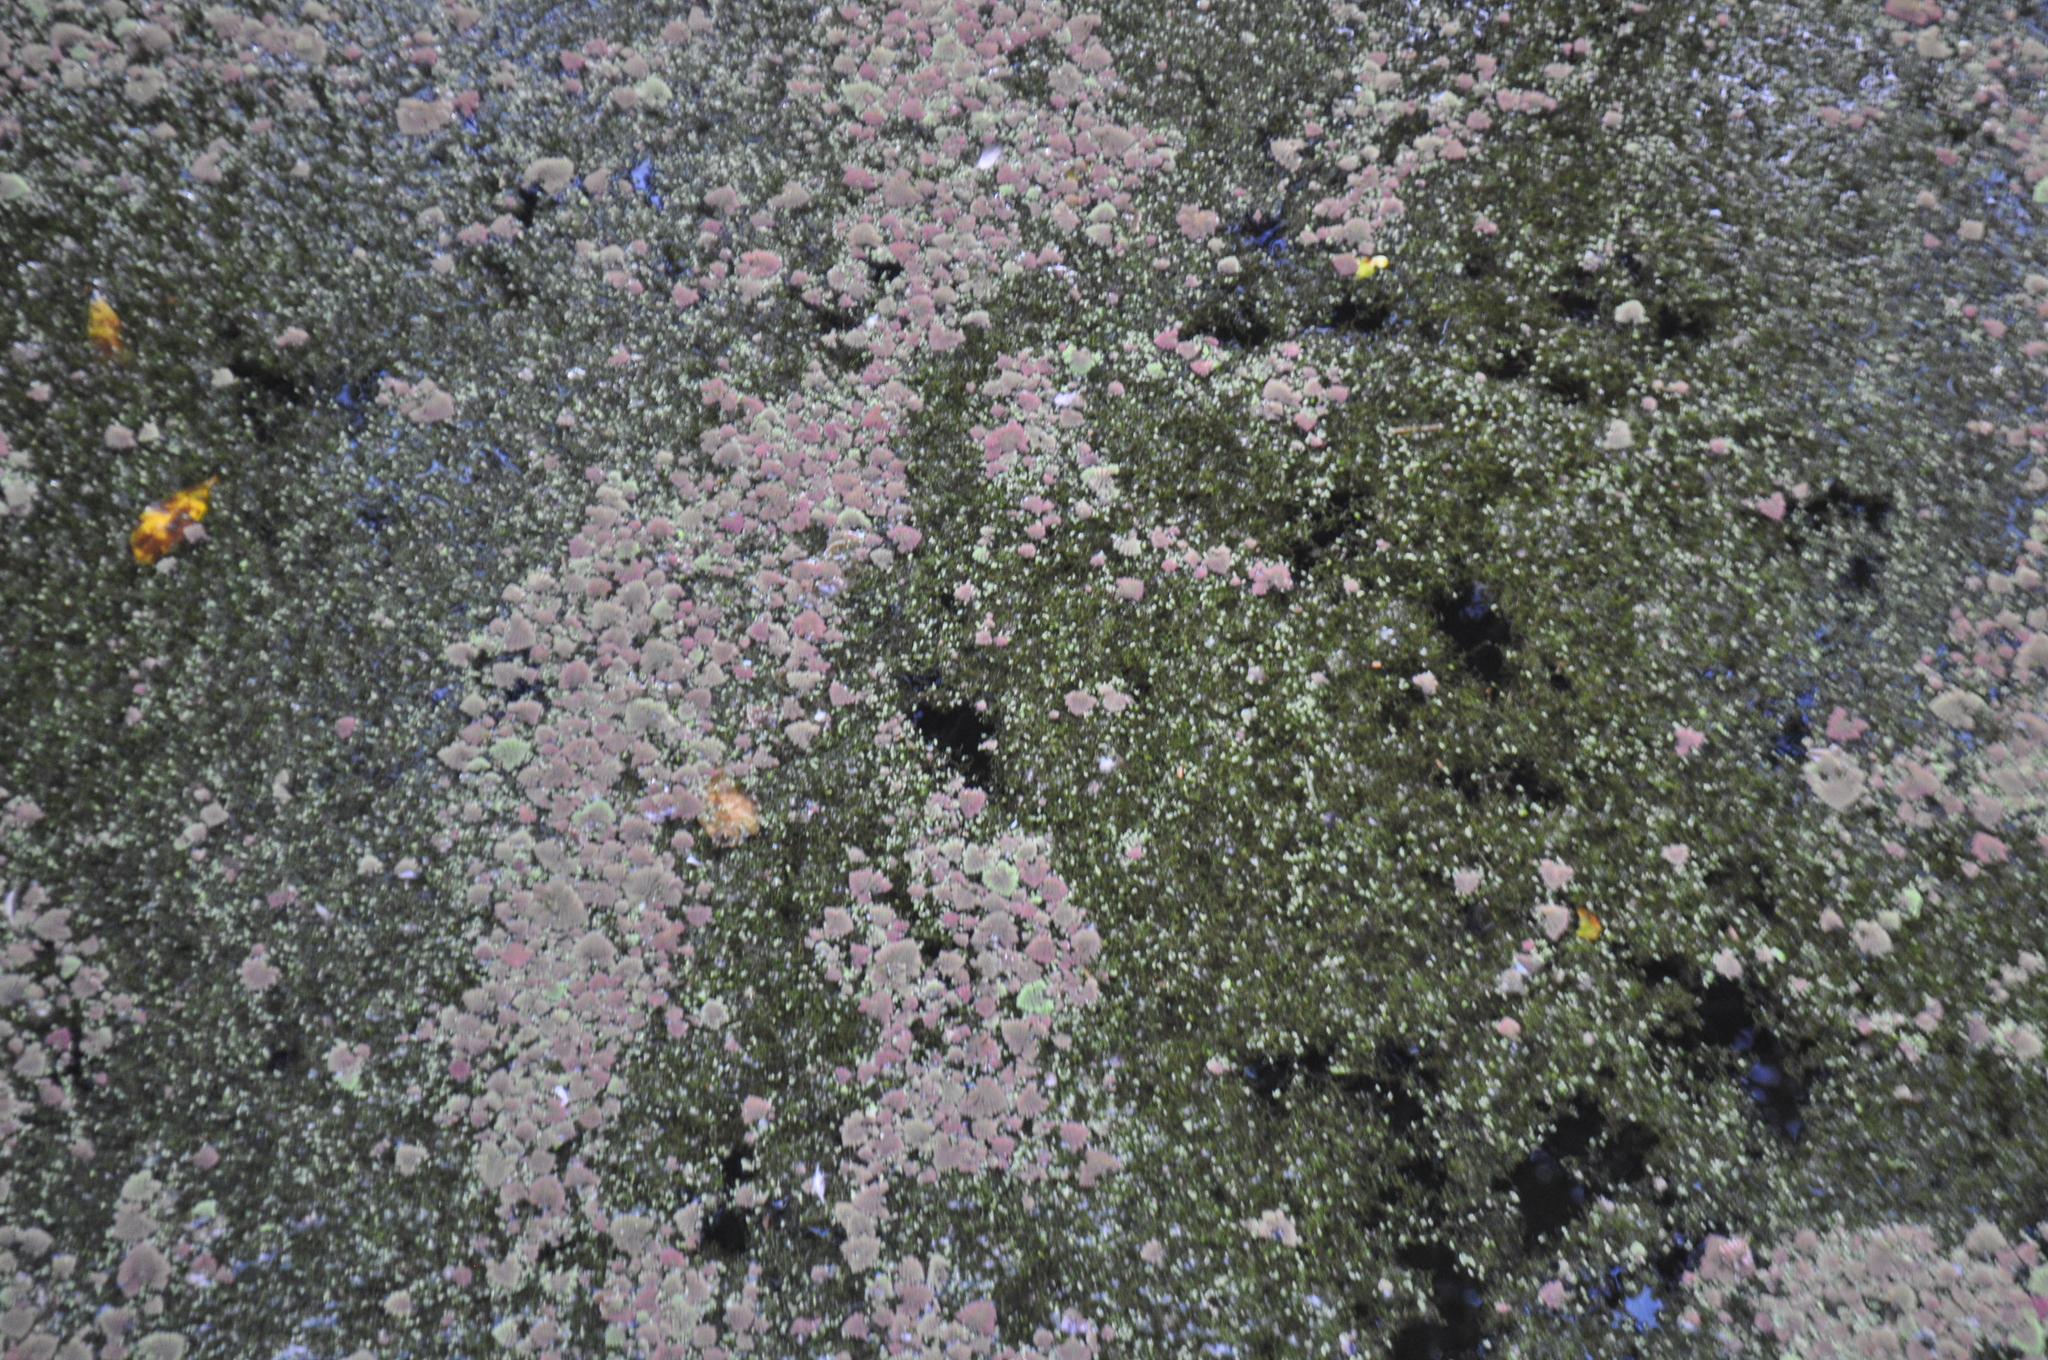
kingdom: Plantae
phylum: Tracheophyta
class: Polypodiopsida
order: Salviniales
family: Salviniaceae
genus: Azolla
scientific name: Azolla pinnata
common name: Ferny azolla
